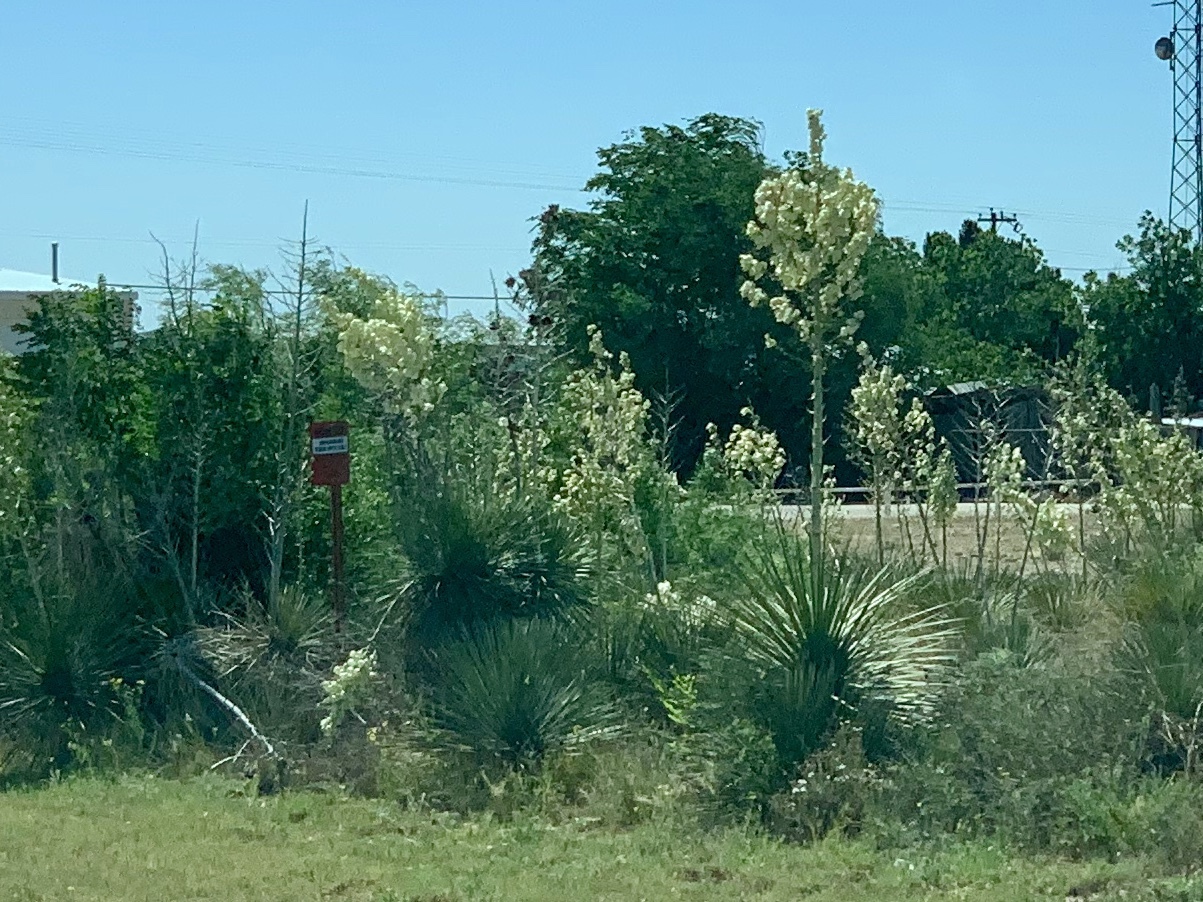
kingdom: Plantae
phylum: Tracheophyta
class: Liliopsida
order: Asparagales
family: Asparagaceae
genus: Yucca
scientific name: Yucca elata
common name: Palmella
